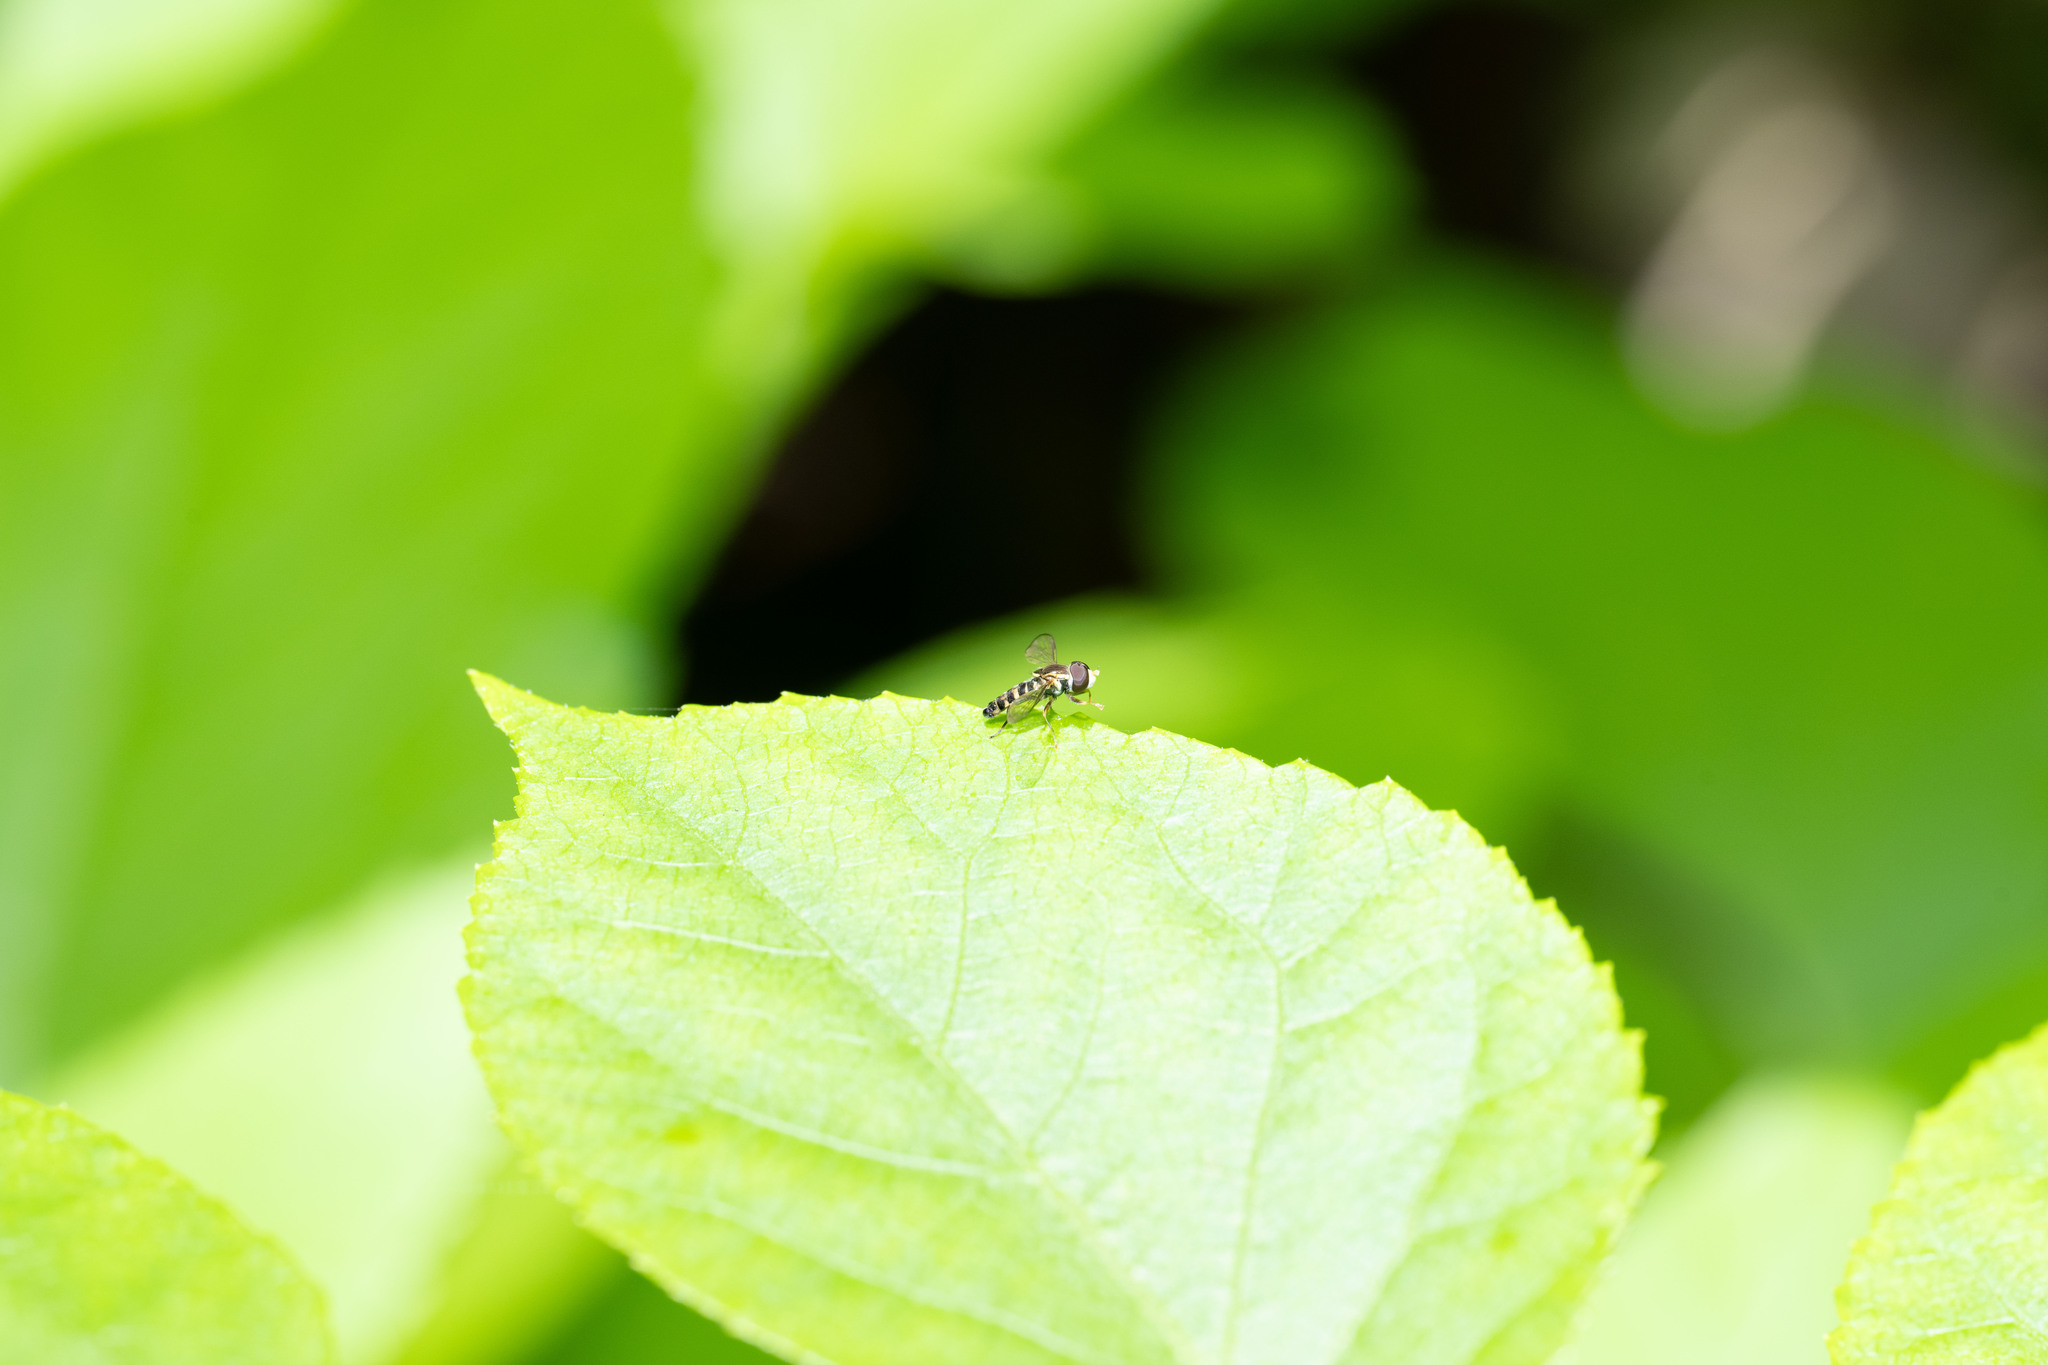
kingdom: Animalia
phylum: Arthropoda
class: Insecta
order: Diptera
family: Syrphidae
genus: Toxomerus
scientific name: Toxomerus occidentalis
